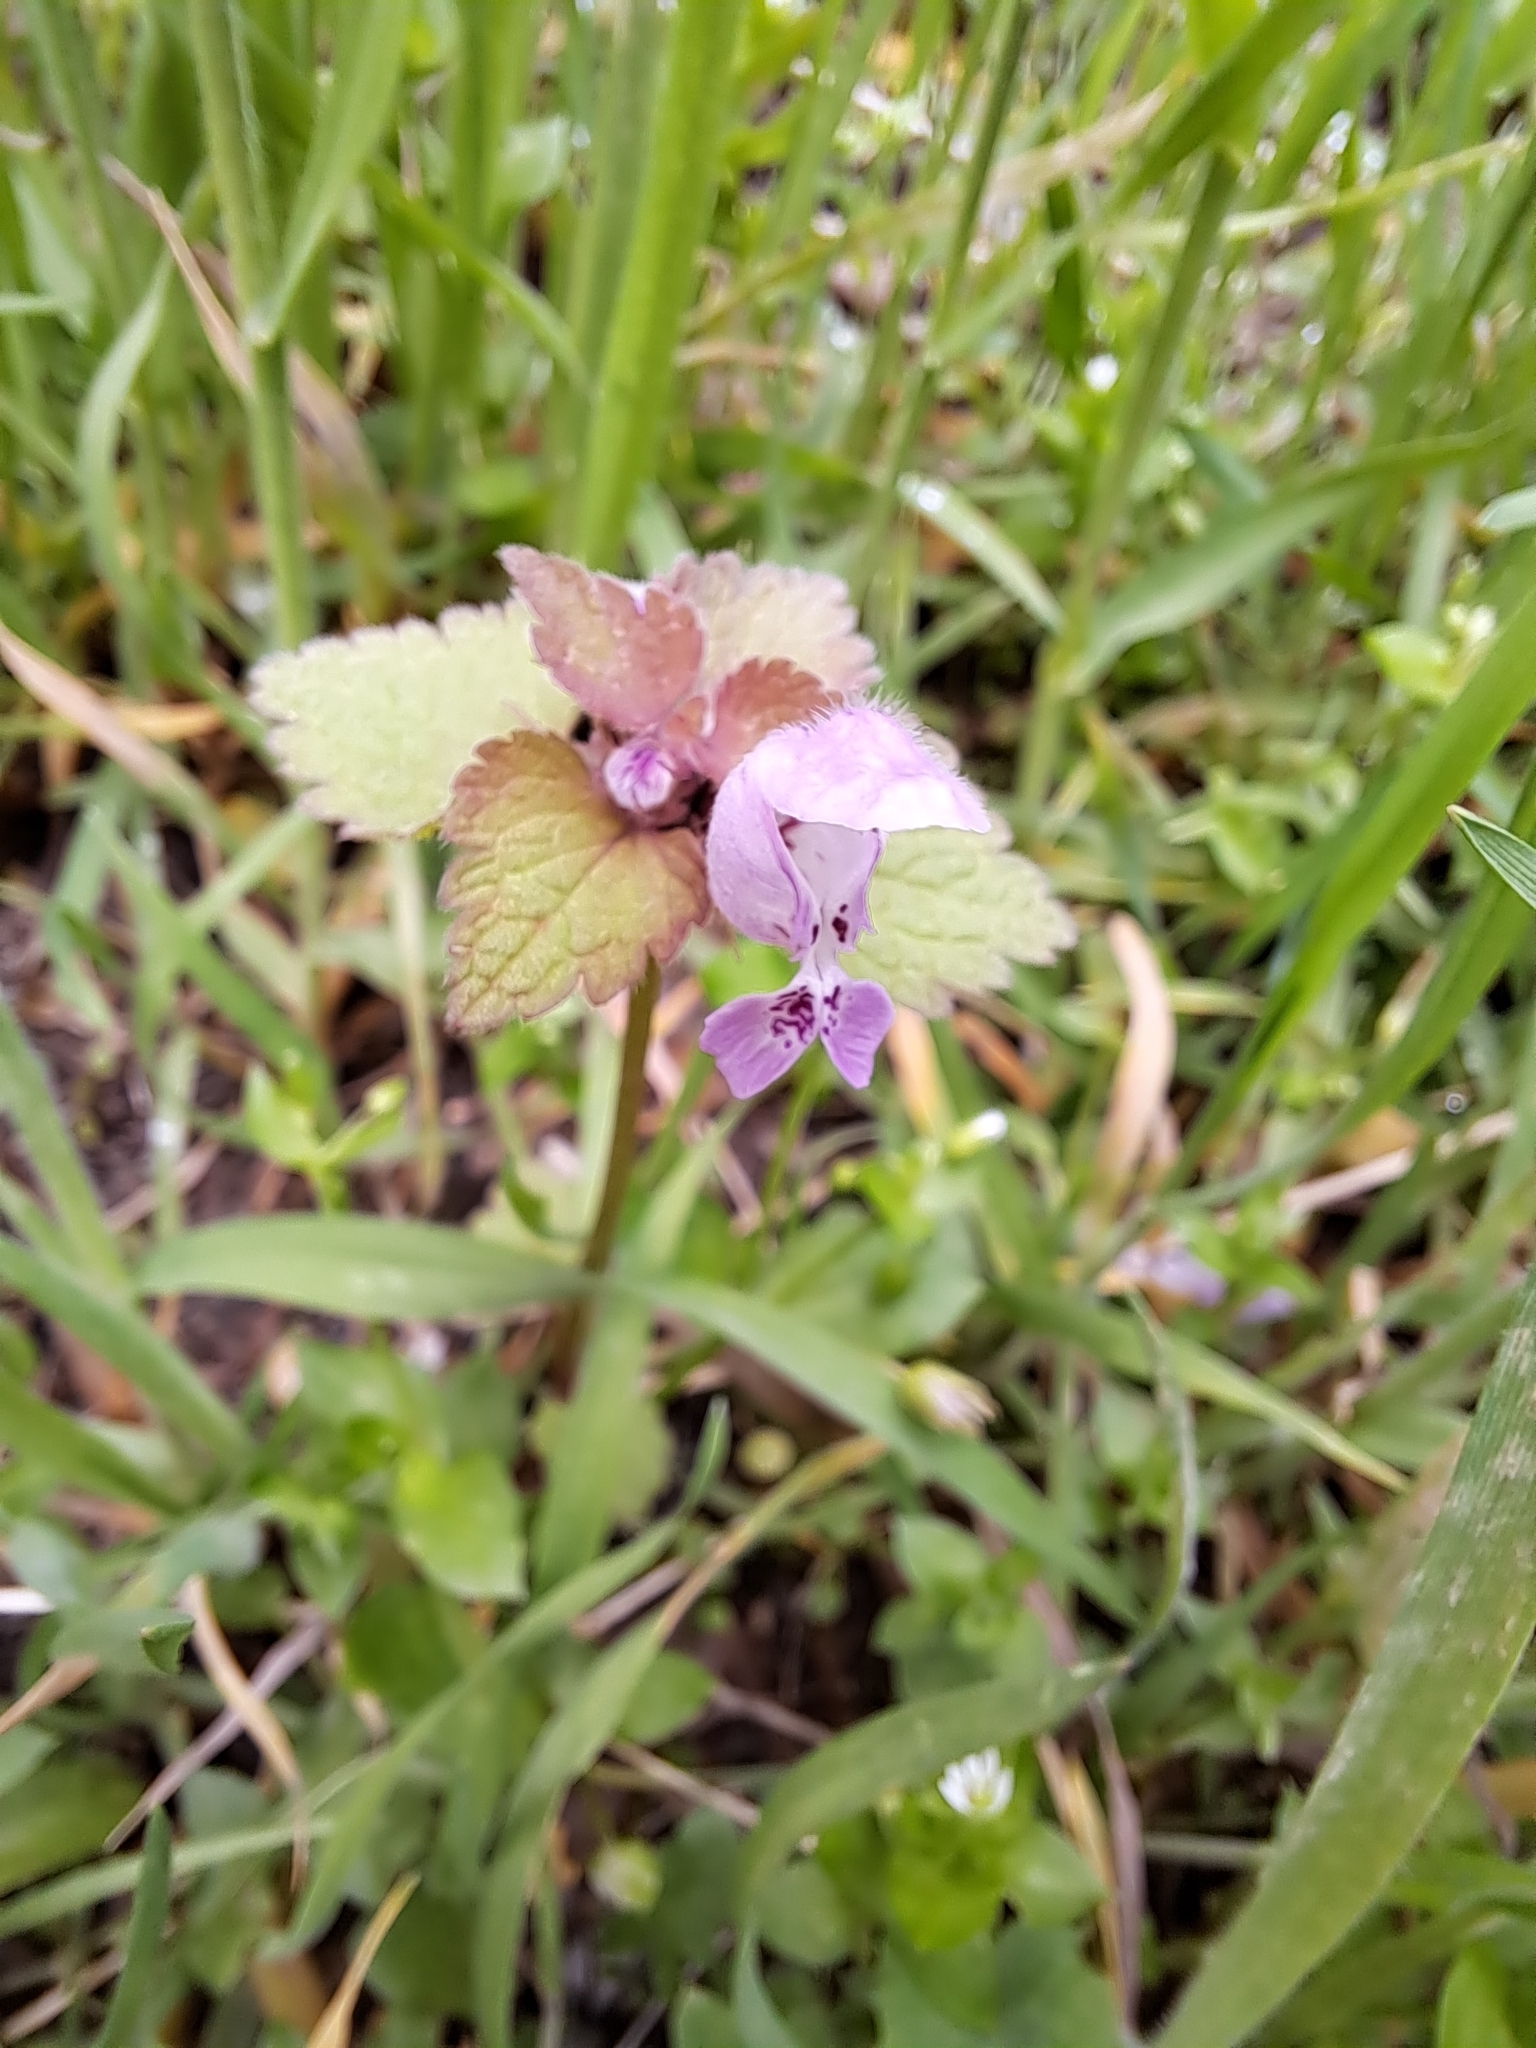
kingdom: Plantae
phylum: Tracheophyta
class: Magnoliopsida
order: Lamiales
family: Lamiaceae
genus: Lamium
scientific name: Lamium purpureum
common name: Red dead-nettle
